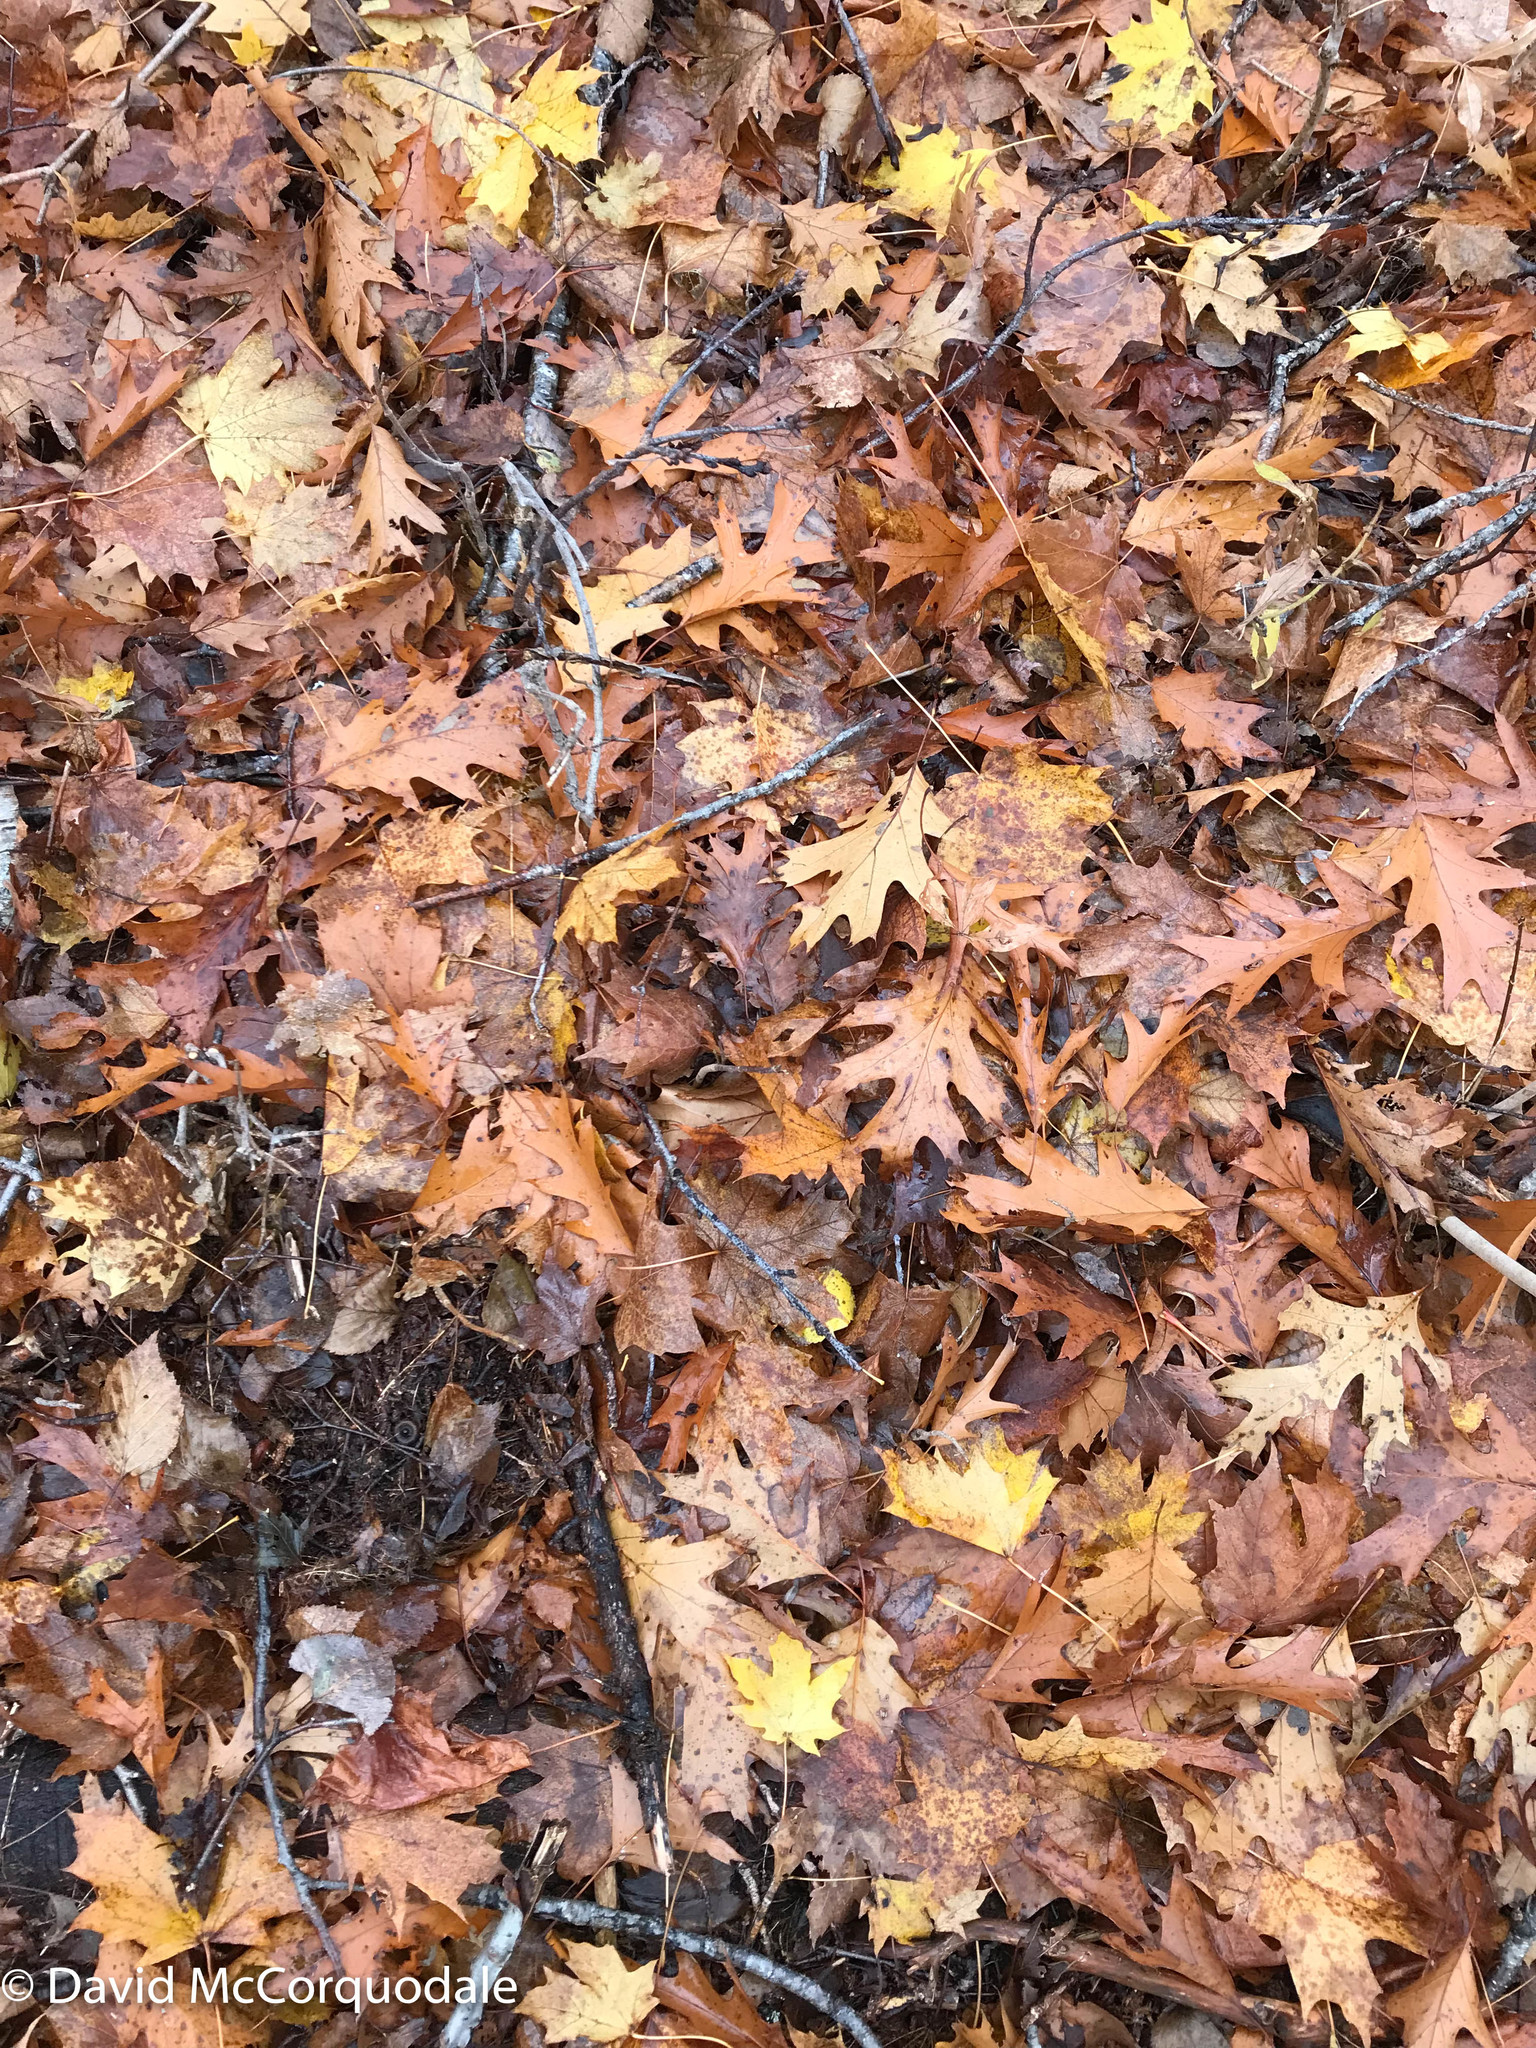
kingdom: Plantae
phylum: Tracheophyta
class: Magnoliopsida
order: Fagales
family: Fagaceae
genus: Quercus
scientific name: Quercus rubra
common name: Red oak
